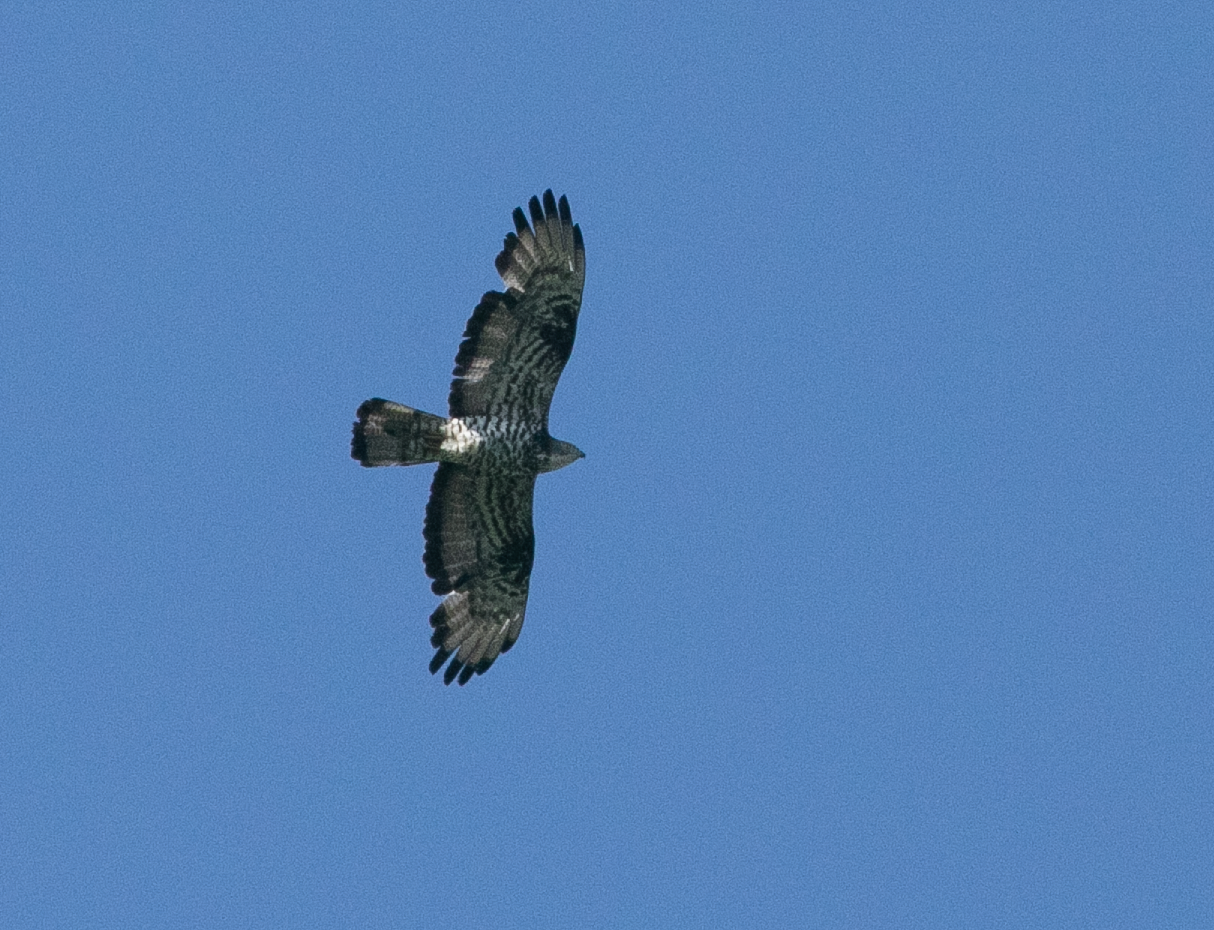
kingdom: Animalia
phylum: Chordata
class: Aves
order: Accipitriformes
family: Accipitridae
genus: Pernis
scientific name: Pernis apivorus
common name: European honey buzzard
